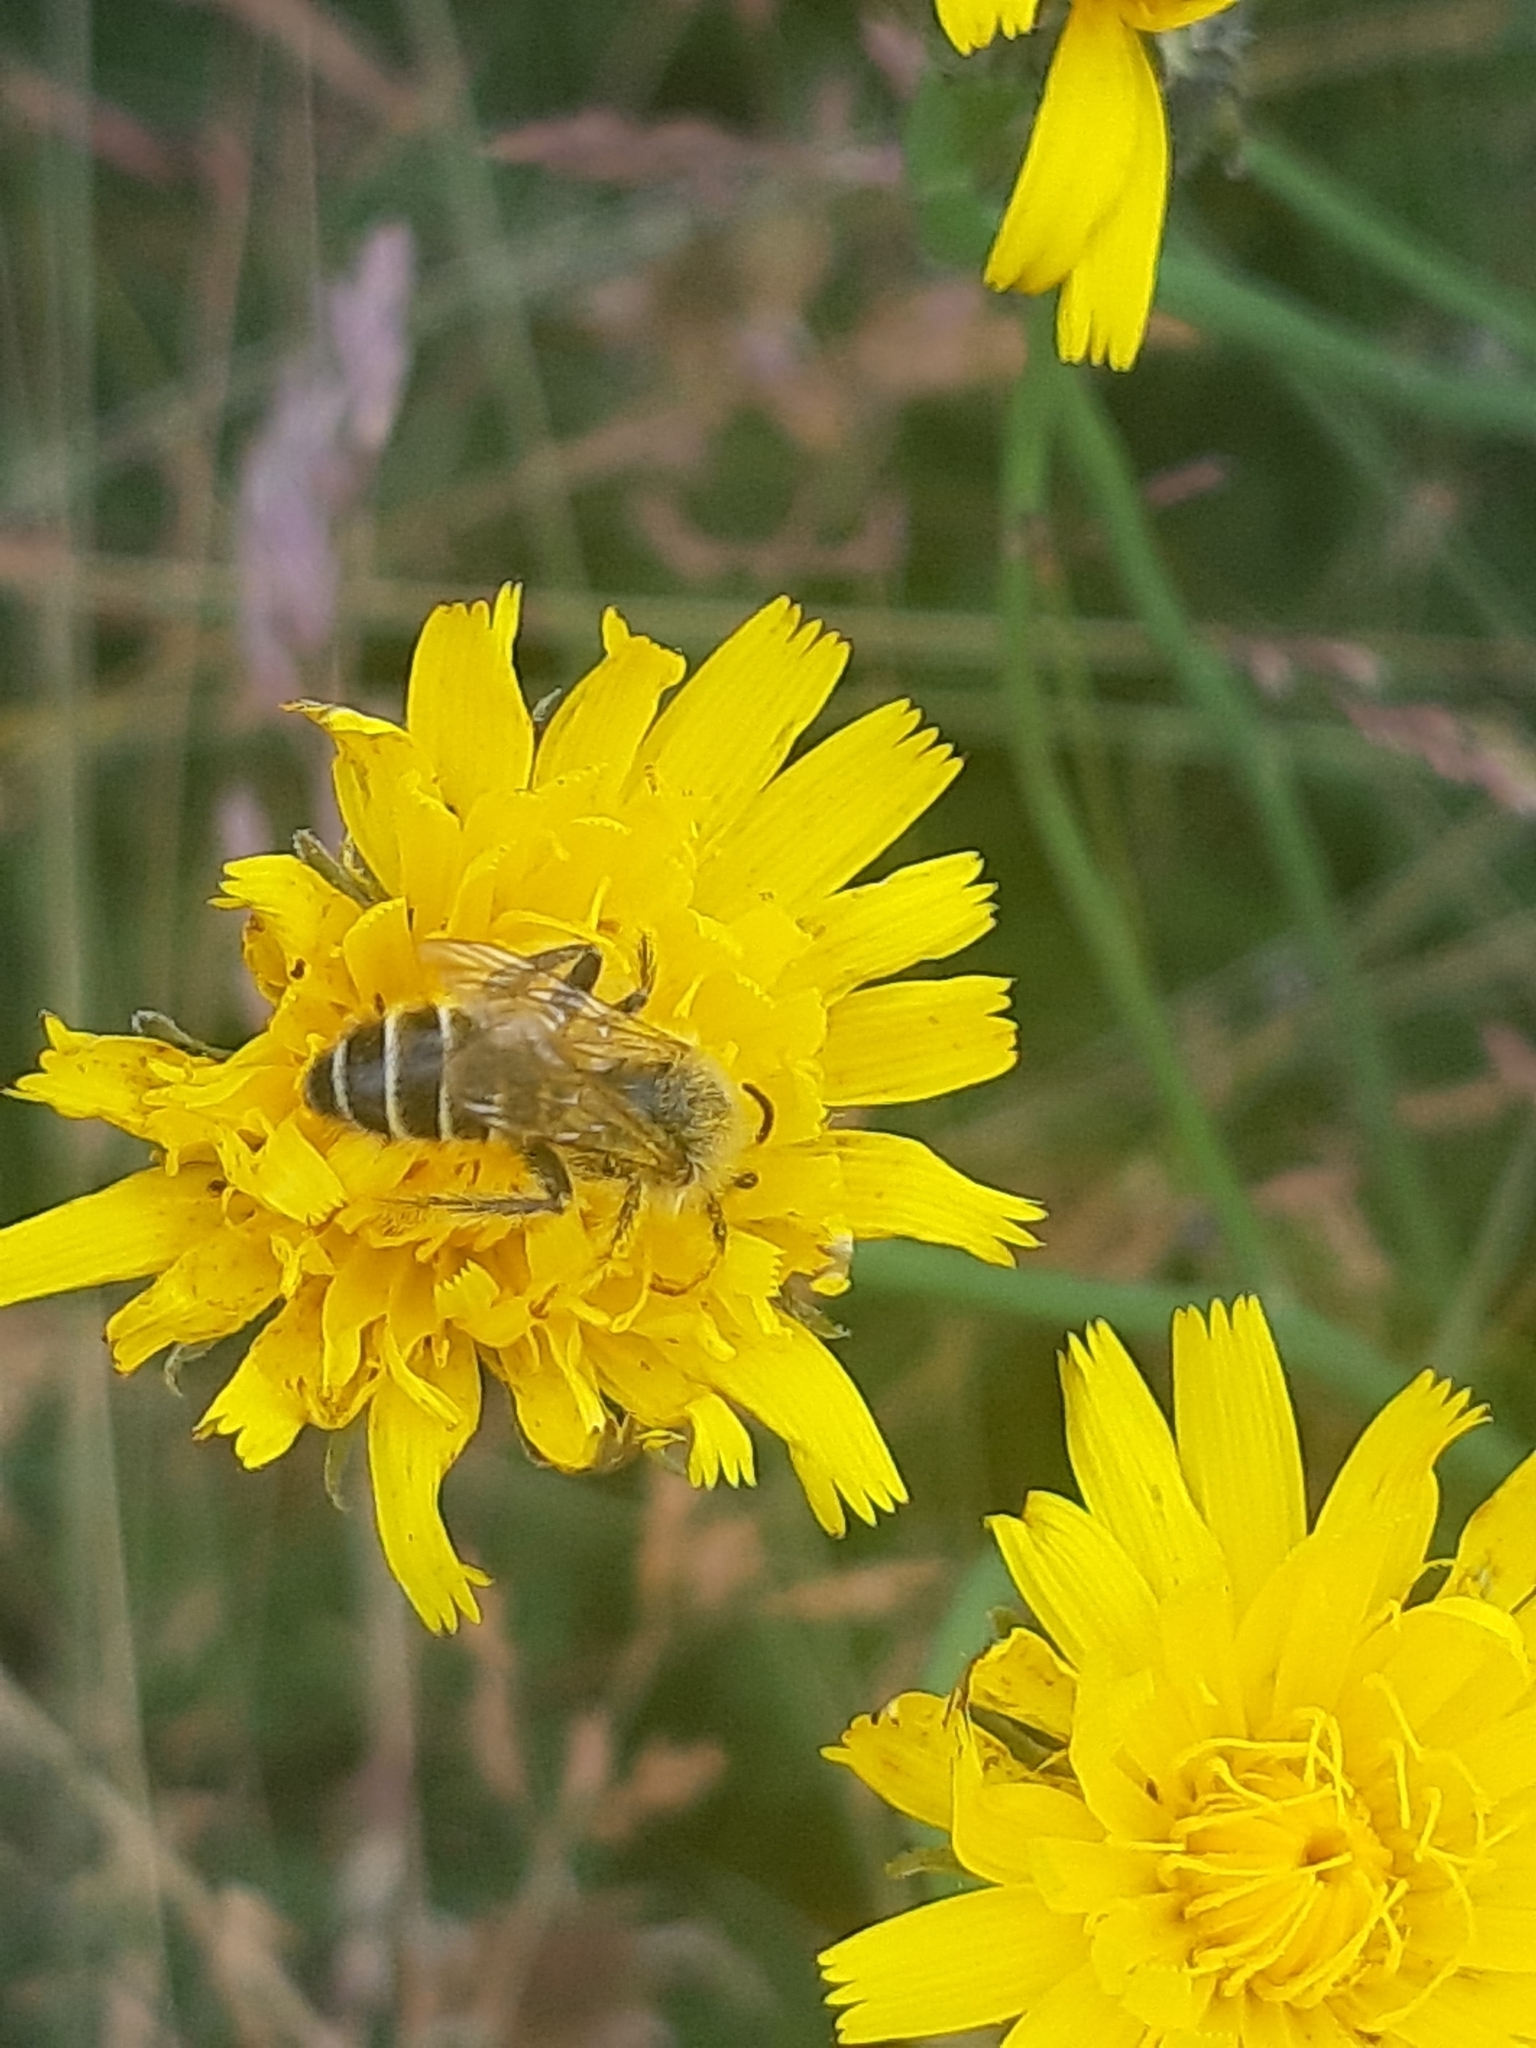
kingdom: Animalia
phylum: Arthropoda
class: Insecta
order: Hymenoptera
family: Melittidae
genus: Dasypoda
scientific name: Dasypoda hirtipes
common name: Pantaloon bee
